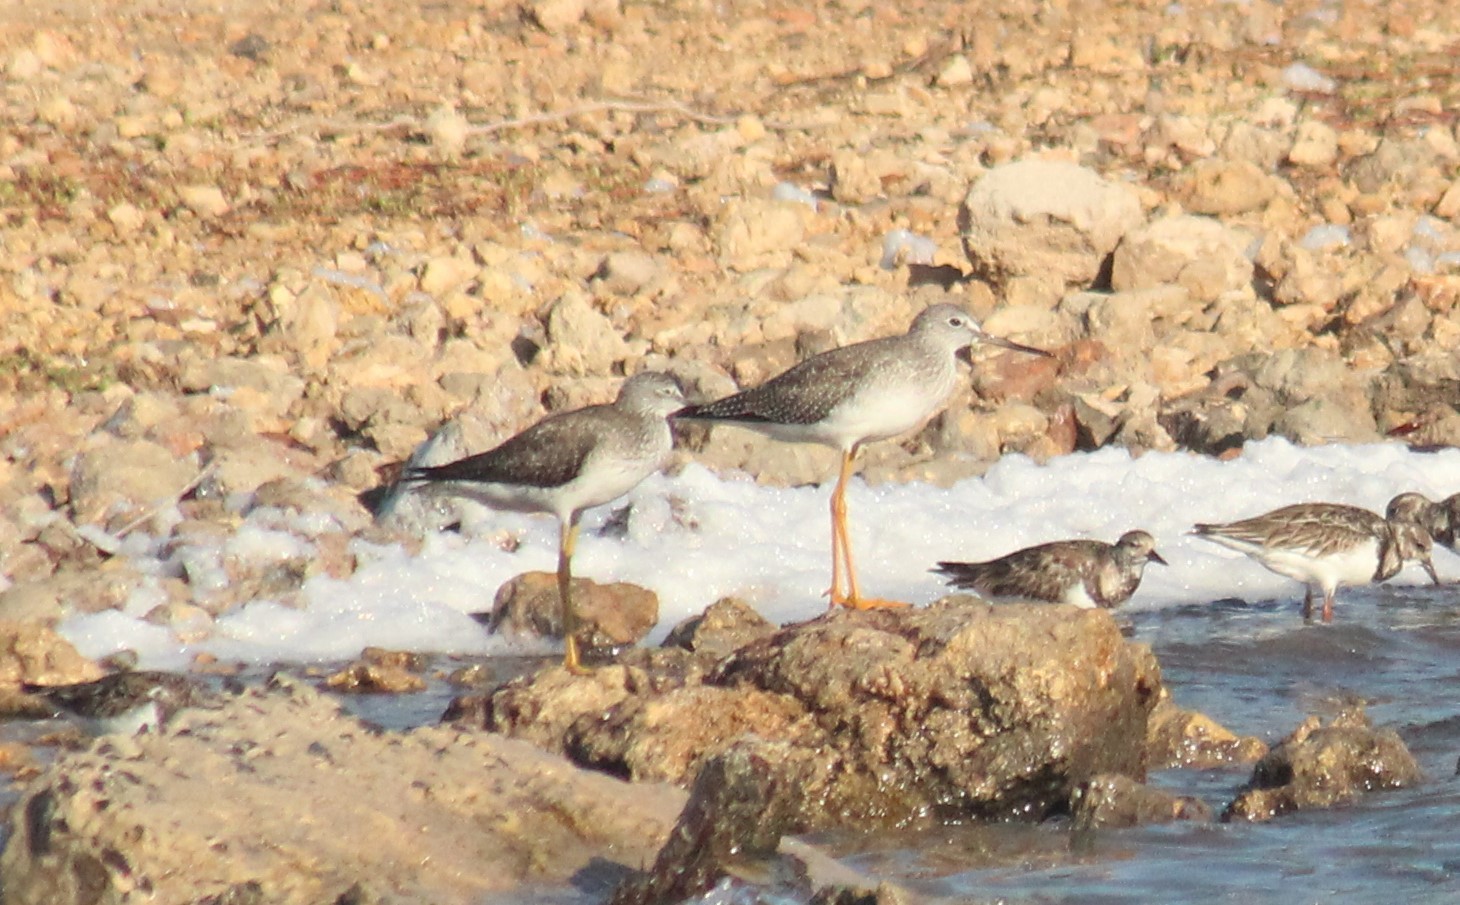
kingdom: Animalia
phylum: Chordata
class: Aves
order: Charadriiformes
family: Scolopacidae
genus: Tringa
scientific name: Tringa melanoleuca
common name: Greater yellowlegs
